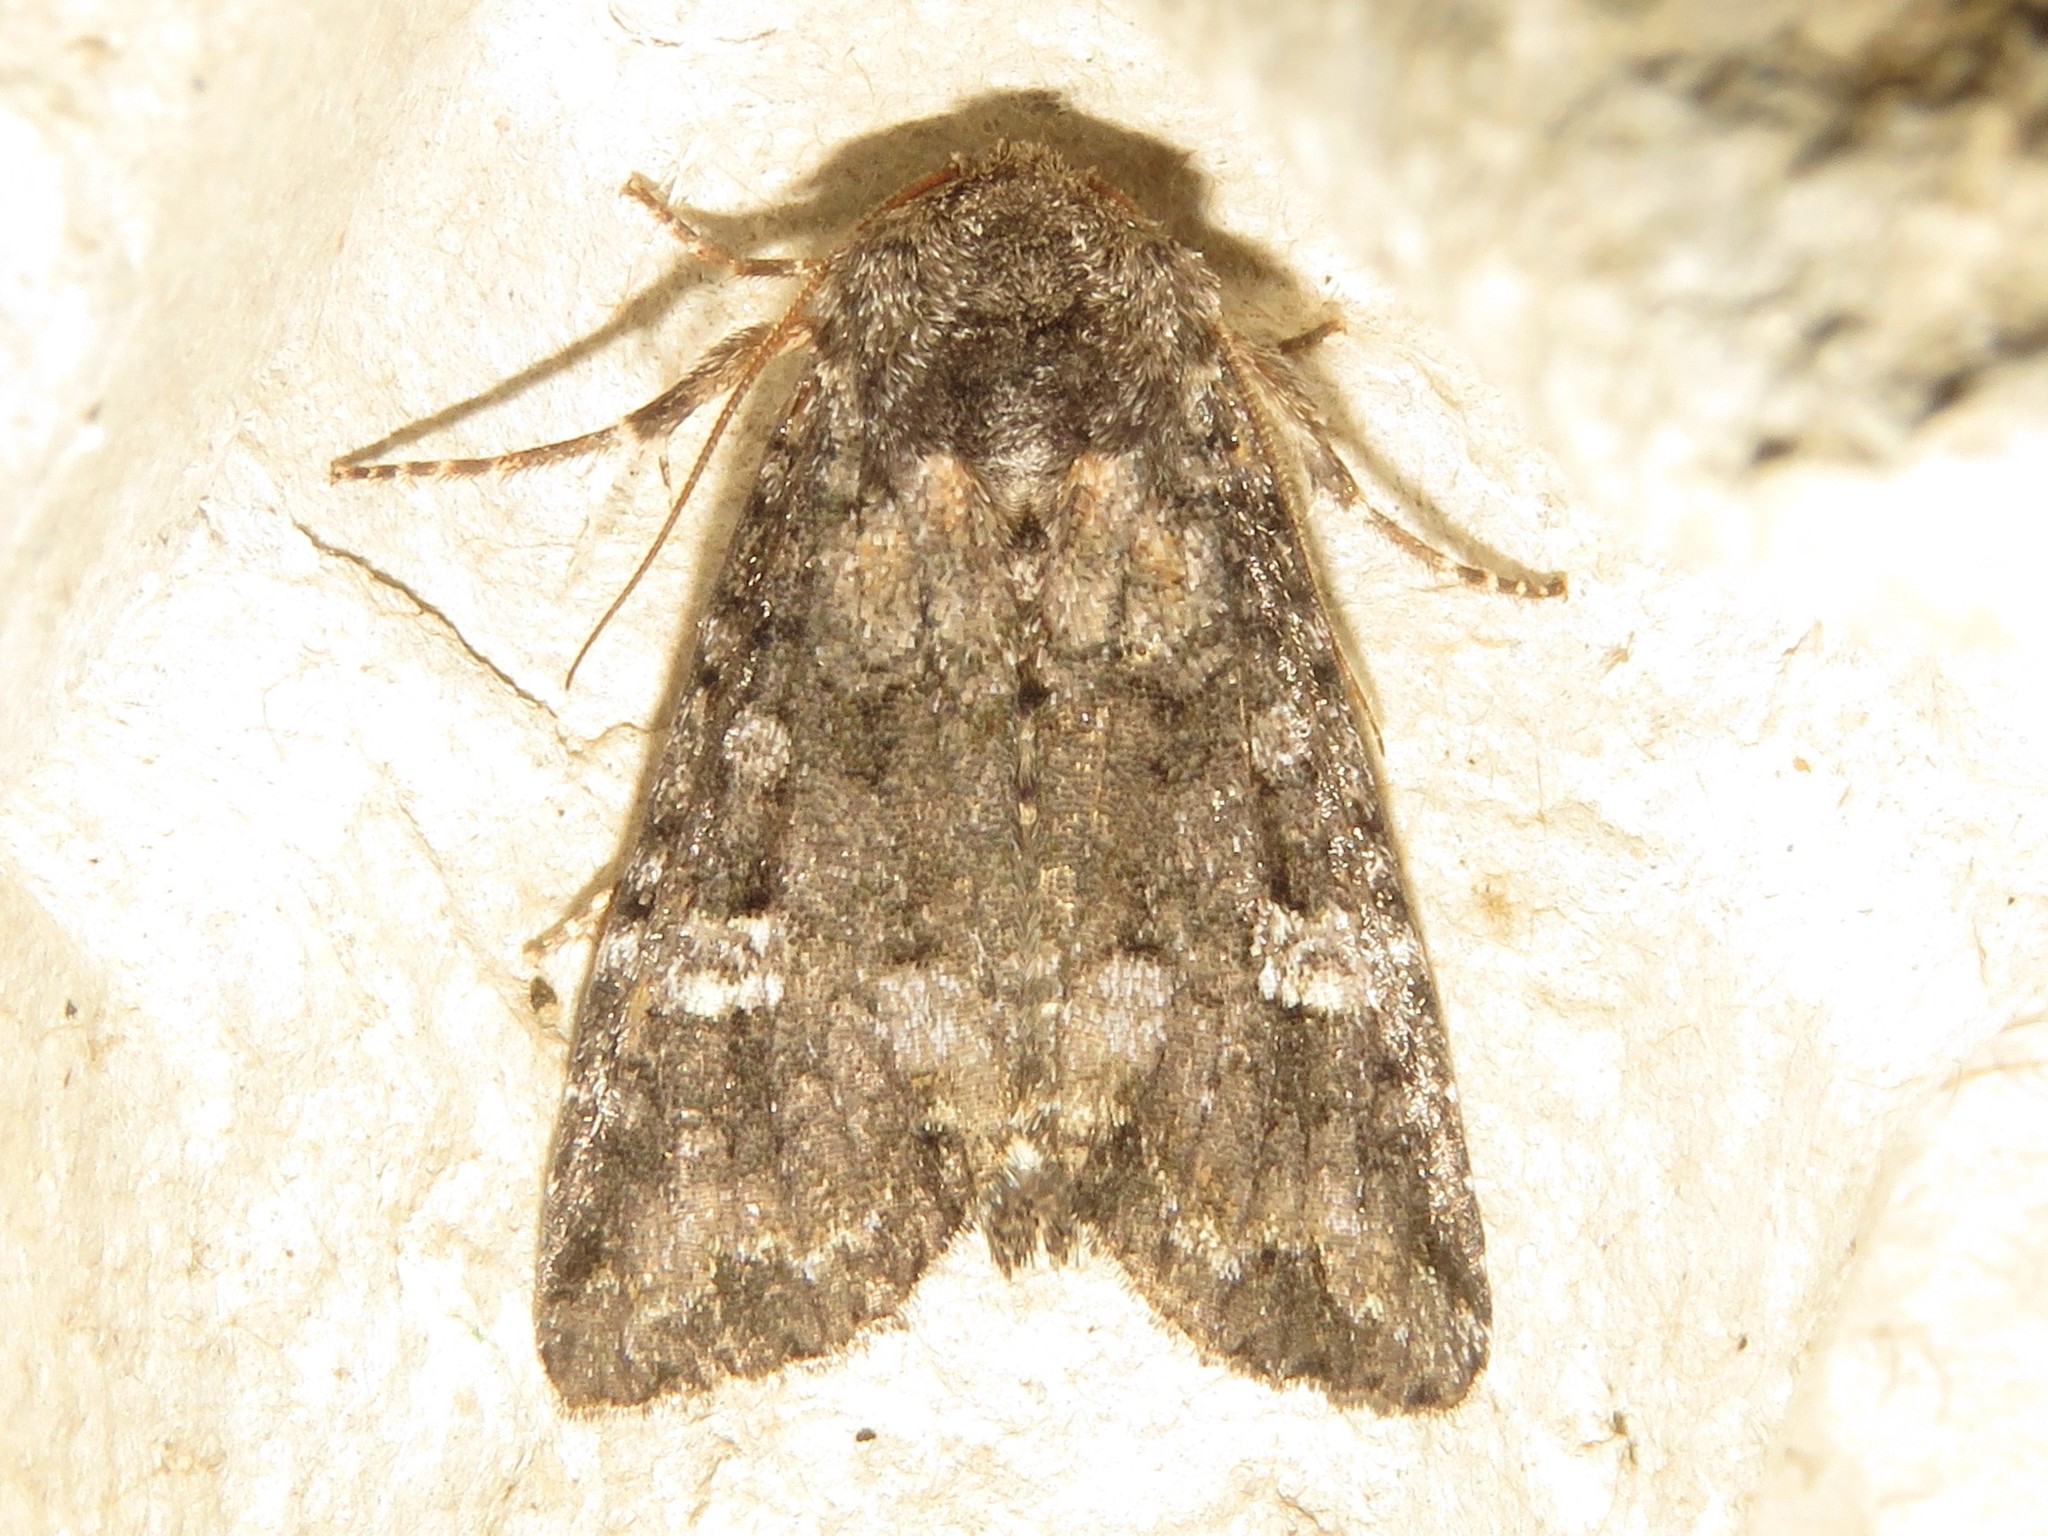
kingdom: Animalia
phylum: Arthropoda
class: Insecta
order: Lepidoptera
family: Noctuidae
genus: Spiramater
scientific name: Spiramater lutra
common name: Otter spiramater moth
